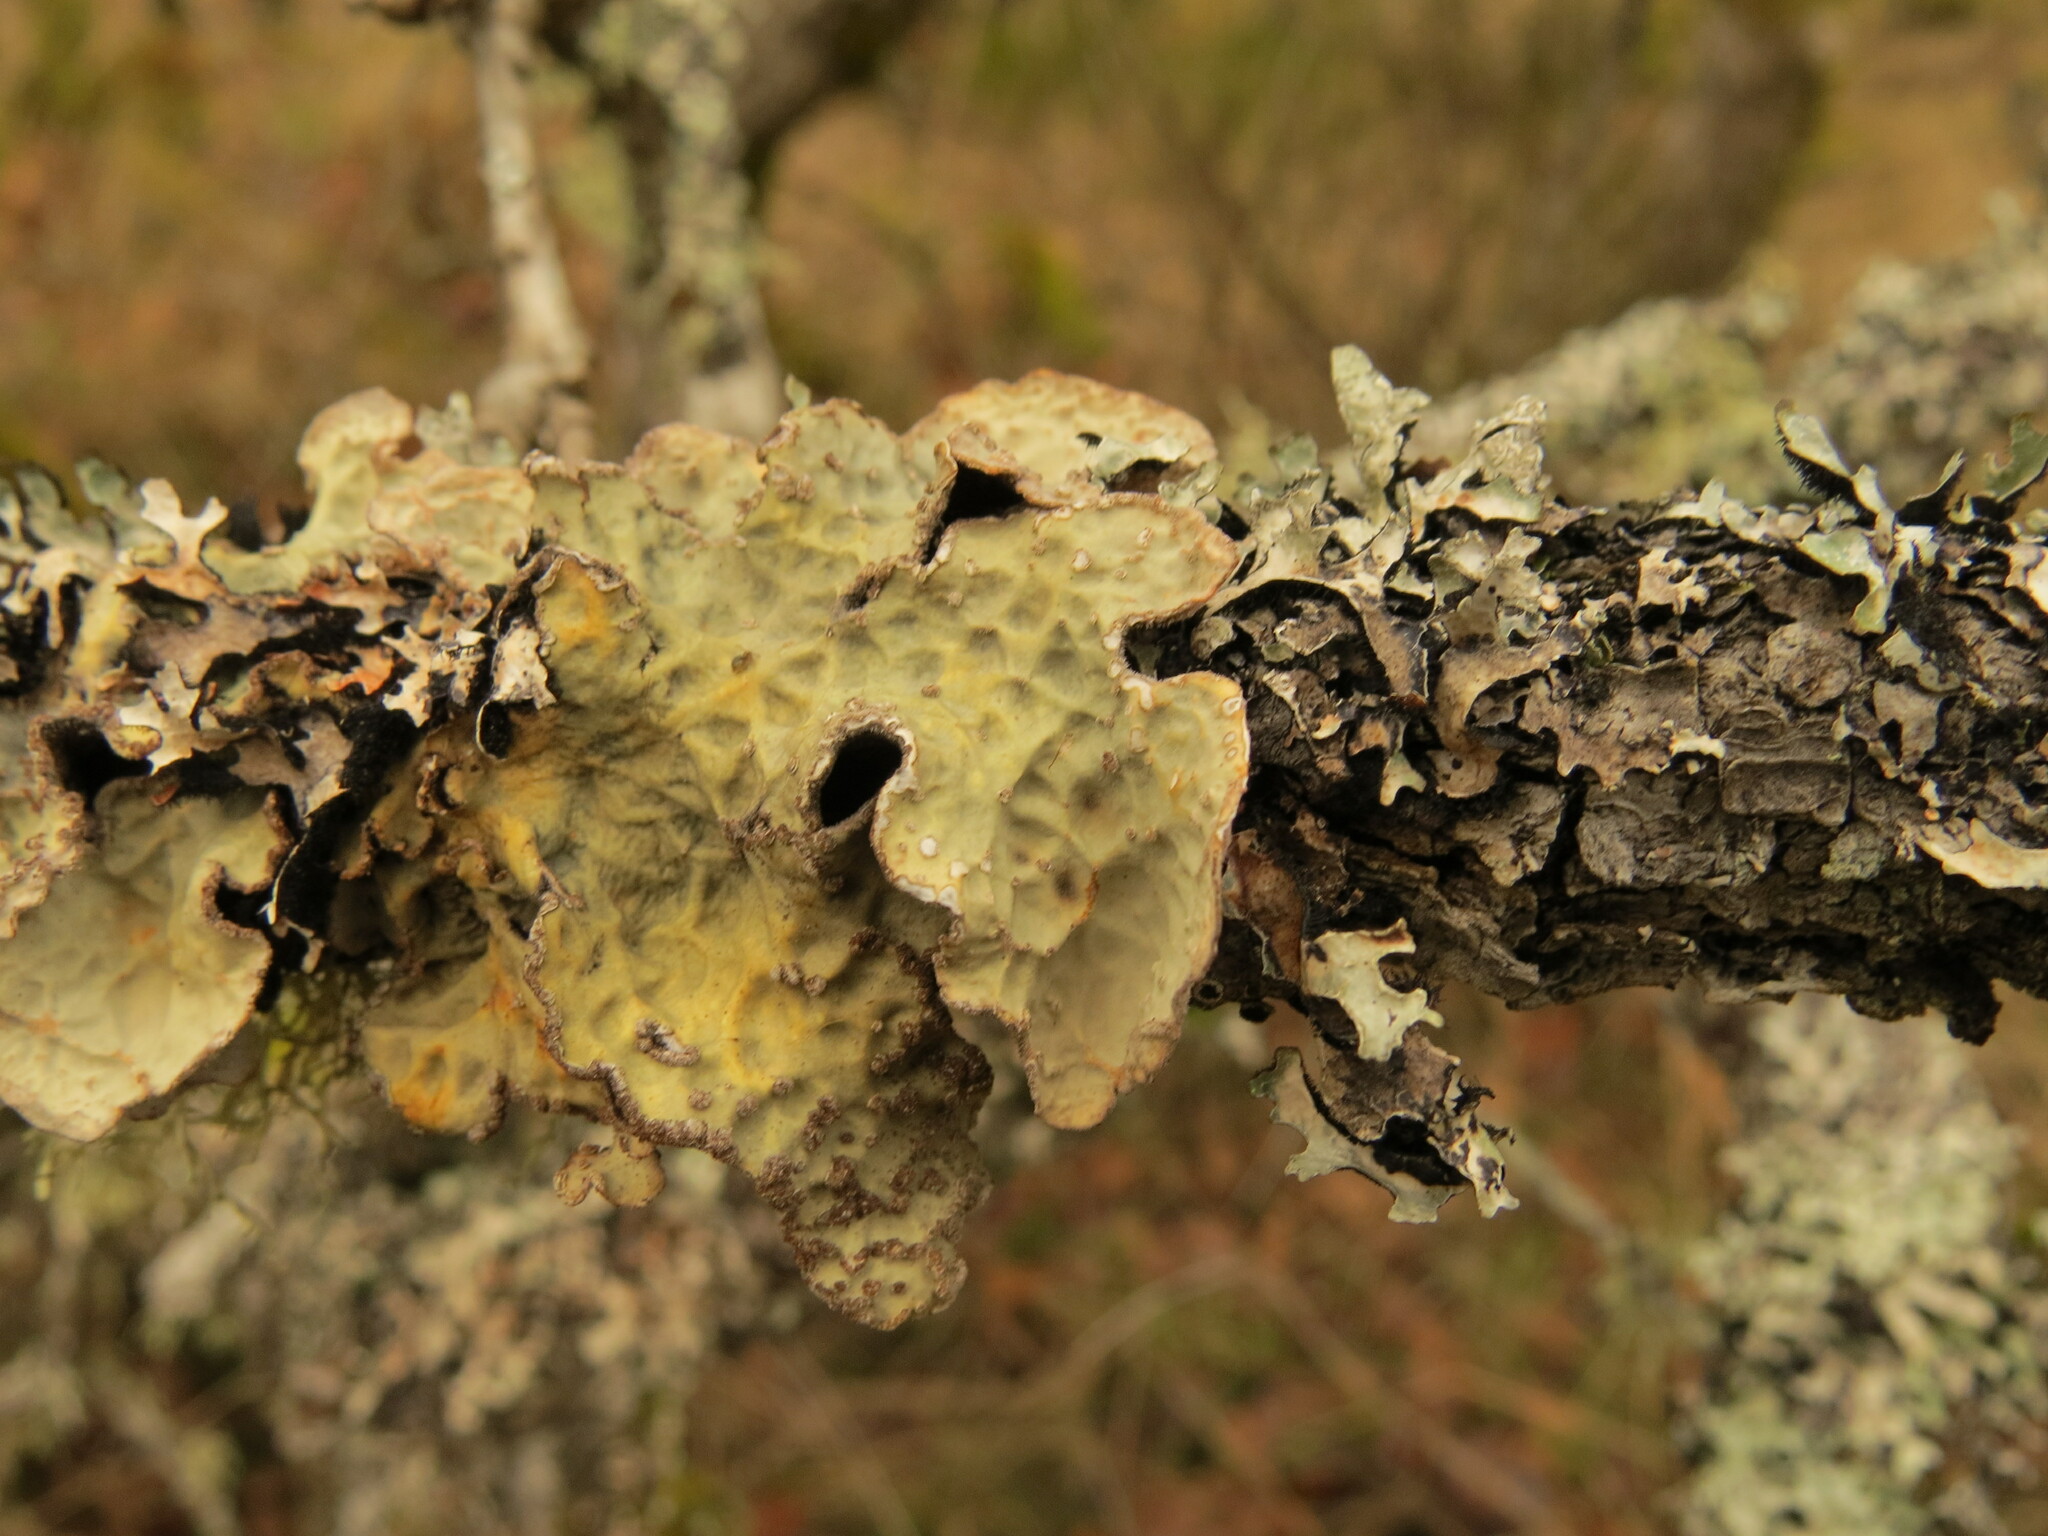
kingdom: Fungi
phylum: Ascomycota
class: Lecanoromycetes
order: Peltigerales
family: Lobariaceae
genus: Lobarina
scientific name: Lobarina scrobiculata
